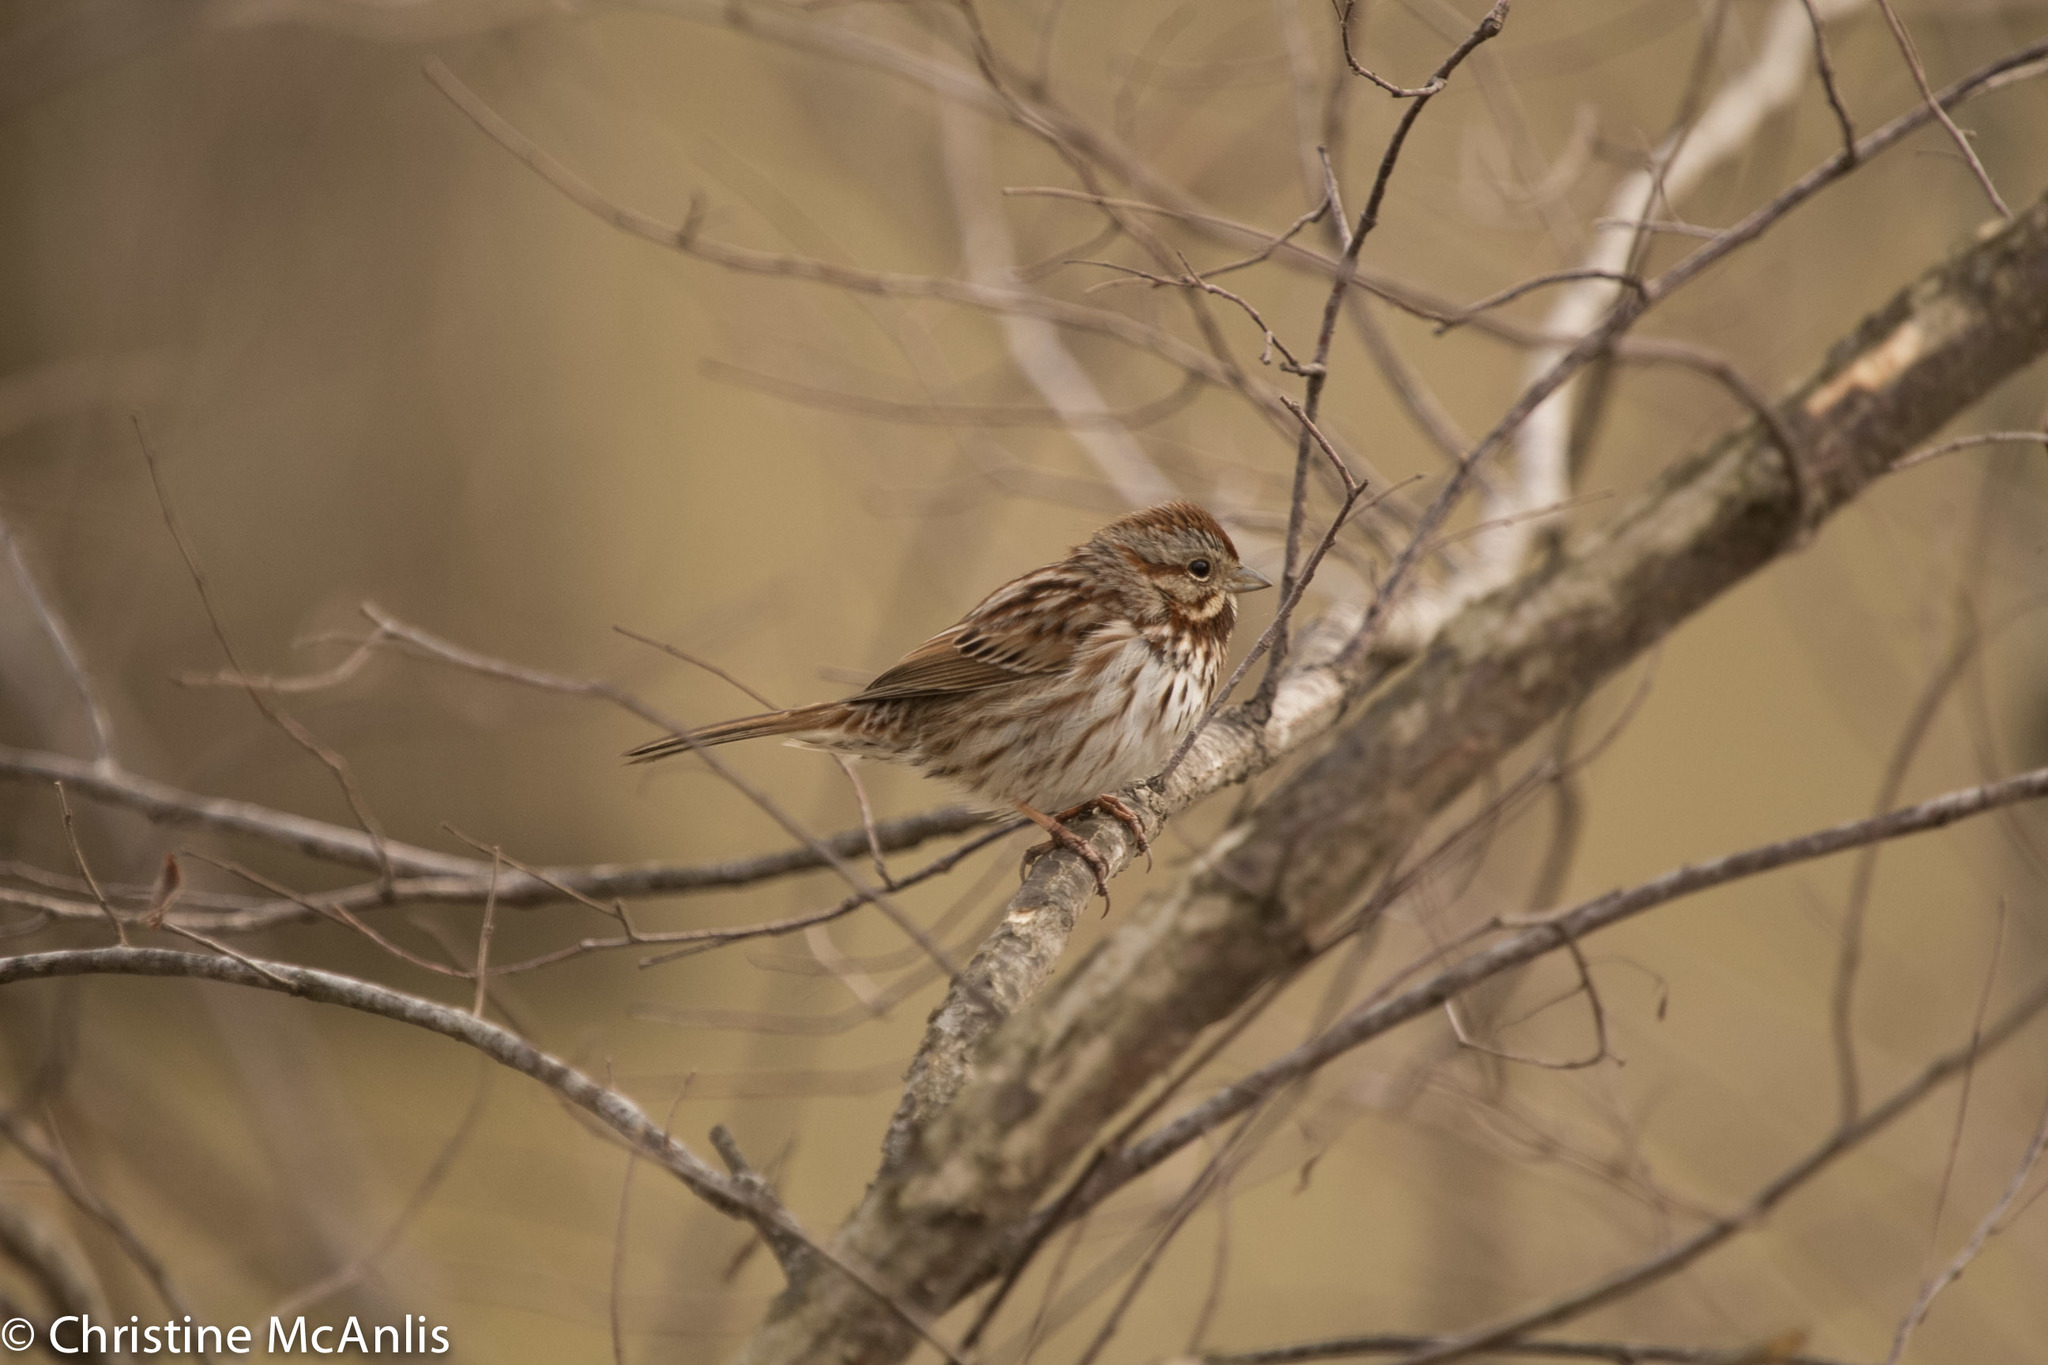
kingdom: Animalia
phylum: Chordata
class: Aves
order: Passeriformes
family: Passerellidae
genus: Melospiza
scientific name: Melospiza melodia
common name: Song sparrow
